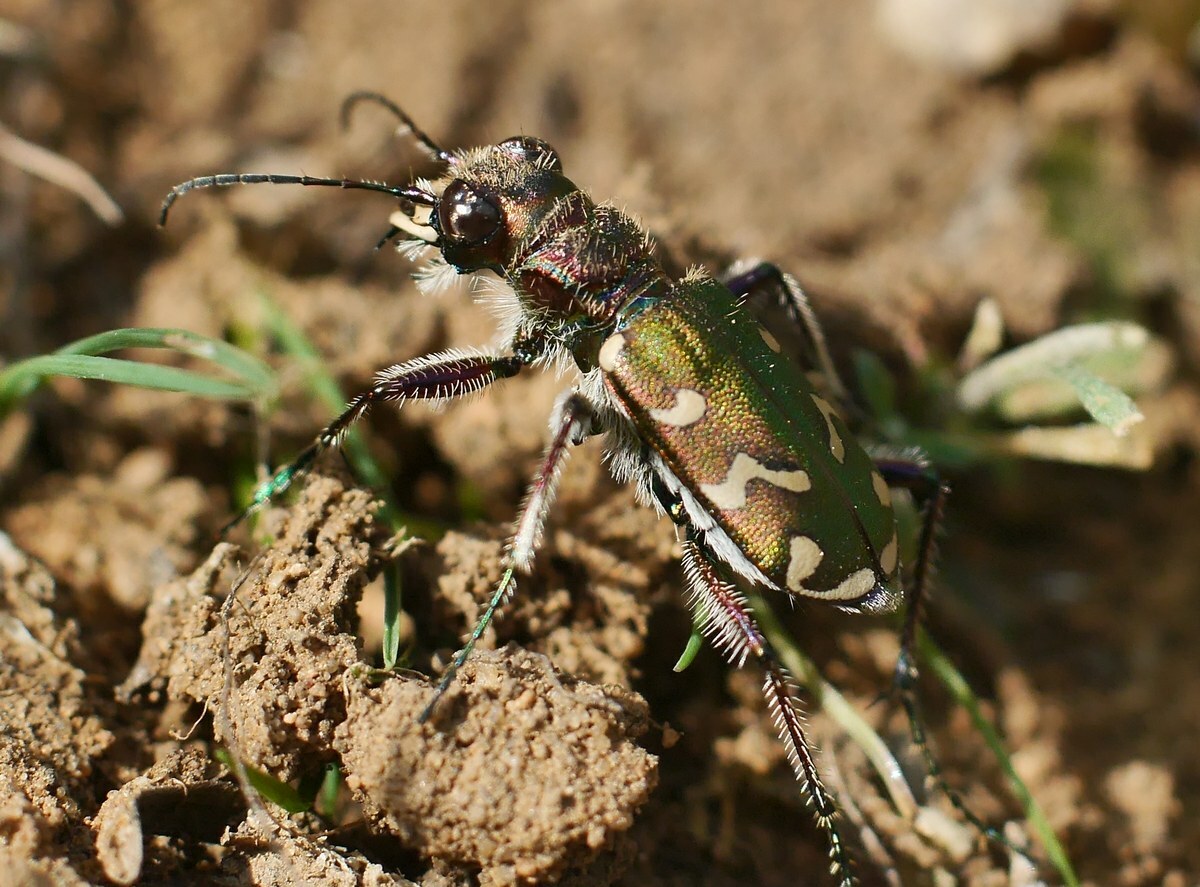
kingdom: Animalia
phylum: Arthropoda
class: Insecta
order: Coleoptera
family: Carabidae
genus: Cicindela
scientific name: Cicindela soluta
